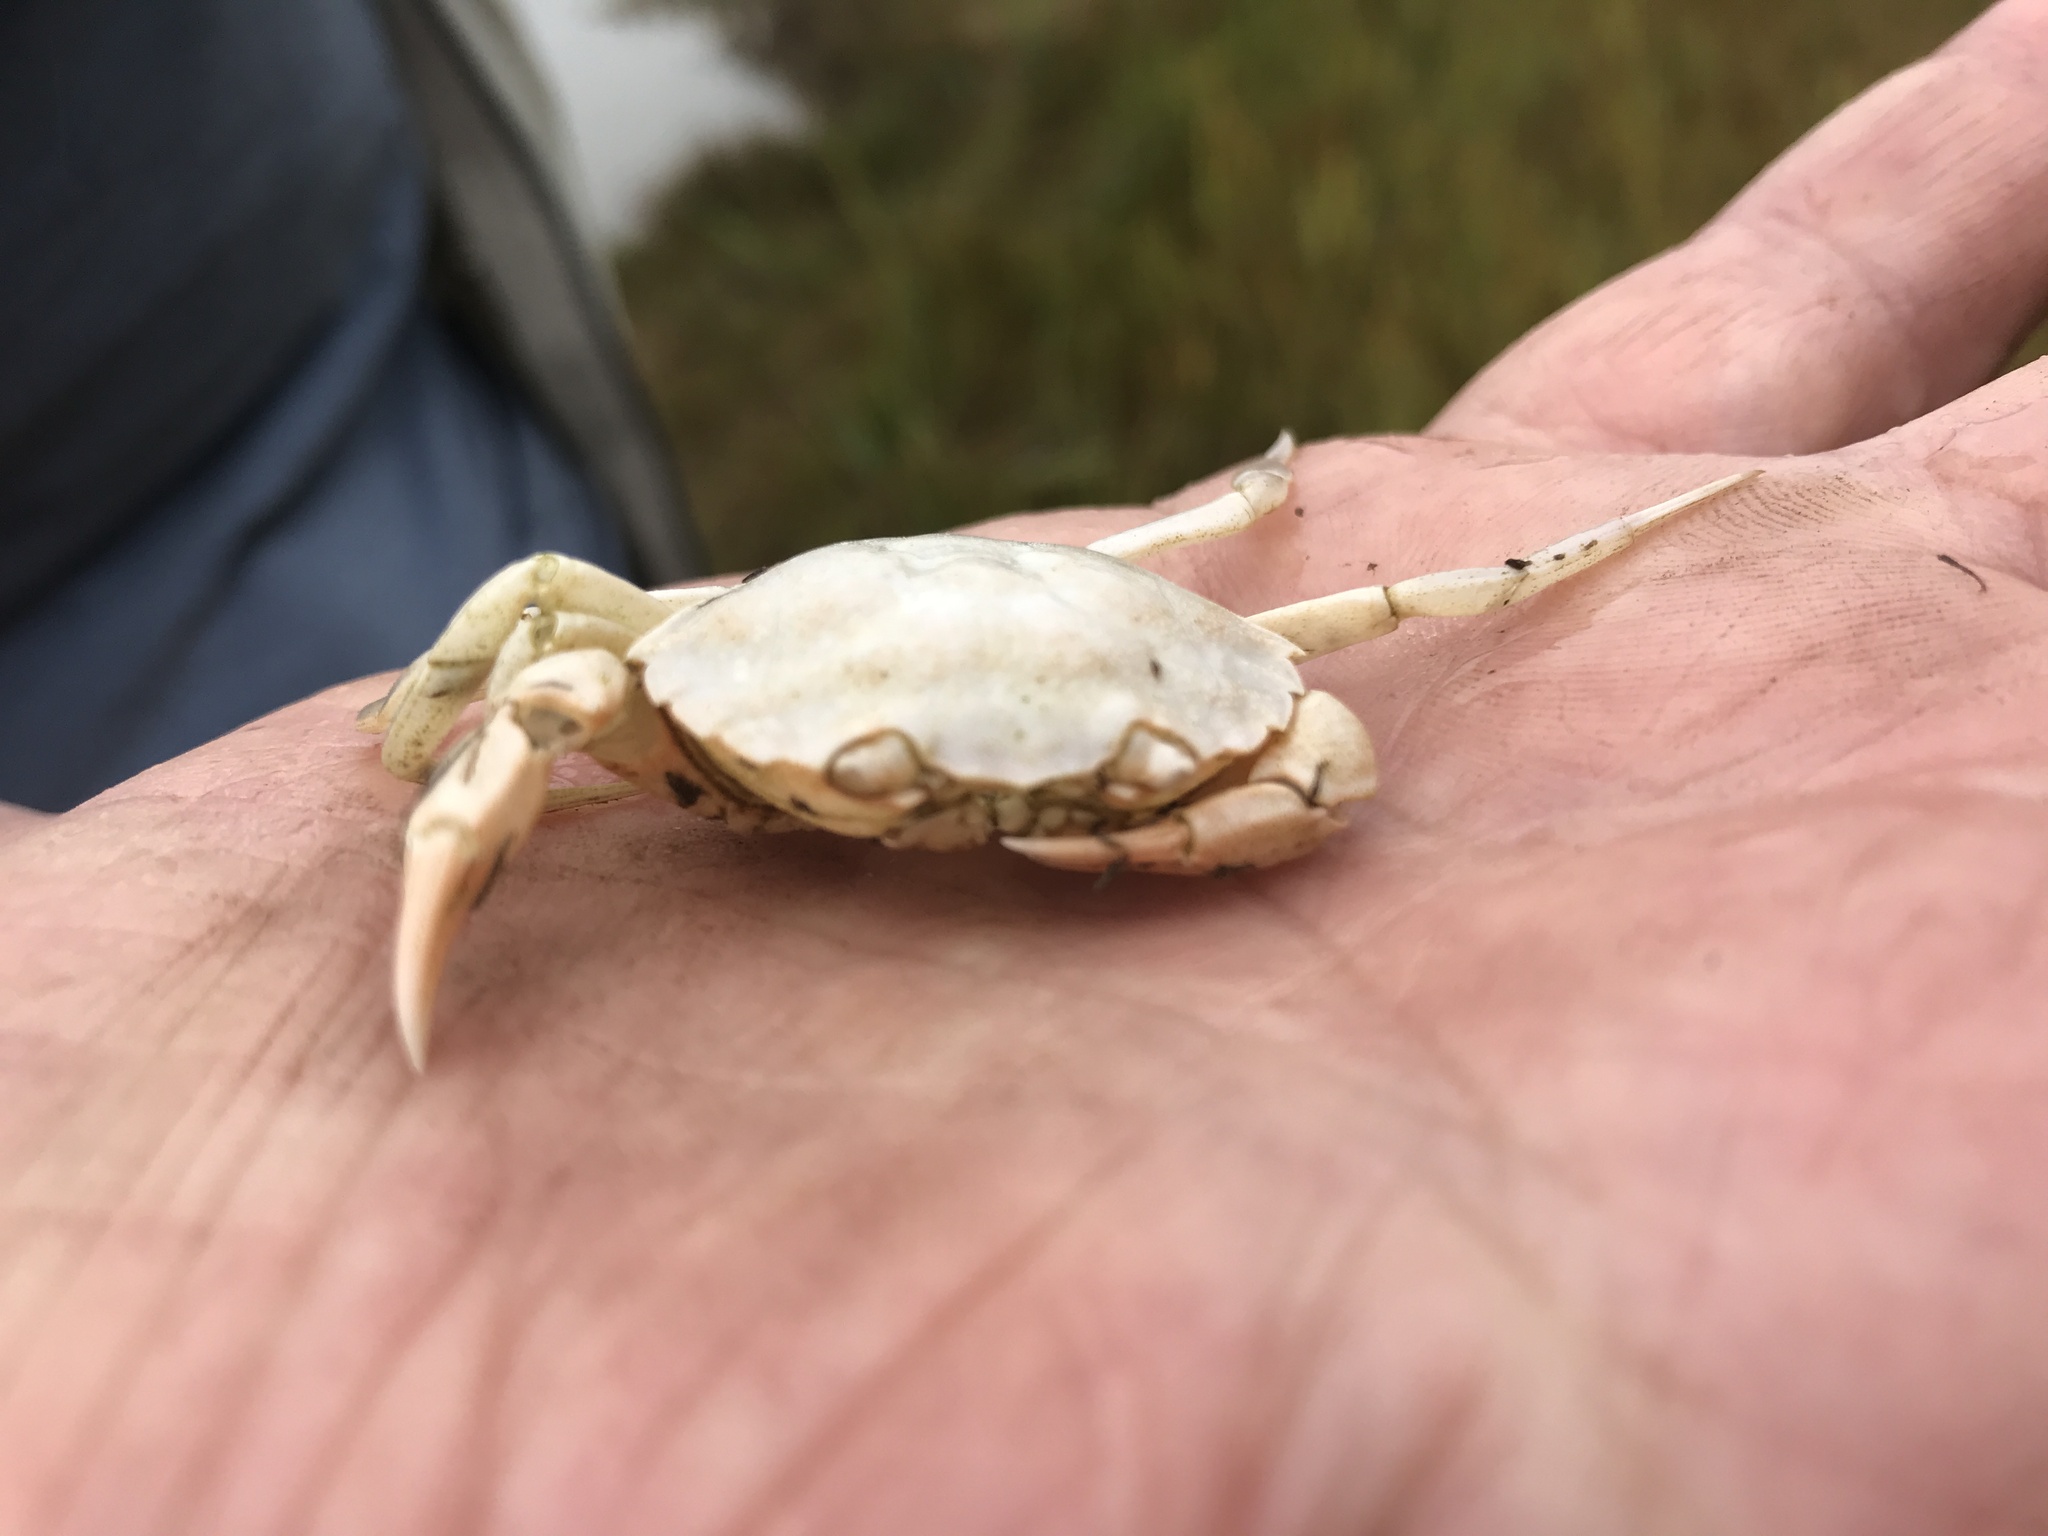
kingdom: Animalia
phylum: Arthropoda
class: Malacostraca
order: Decapoda
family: Carcinidae
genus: Carcinus
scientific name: Carcinus maenas
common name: European green crab
